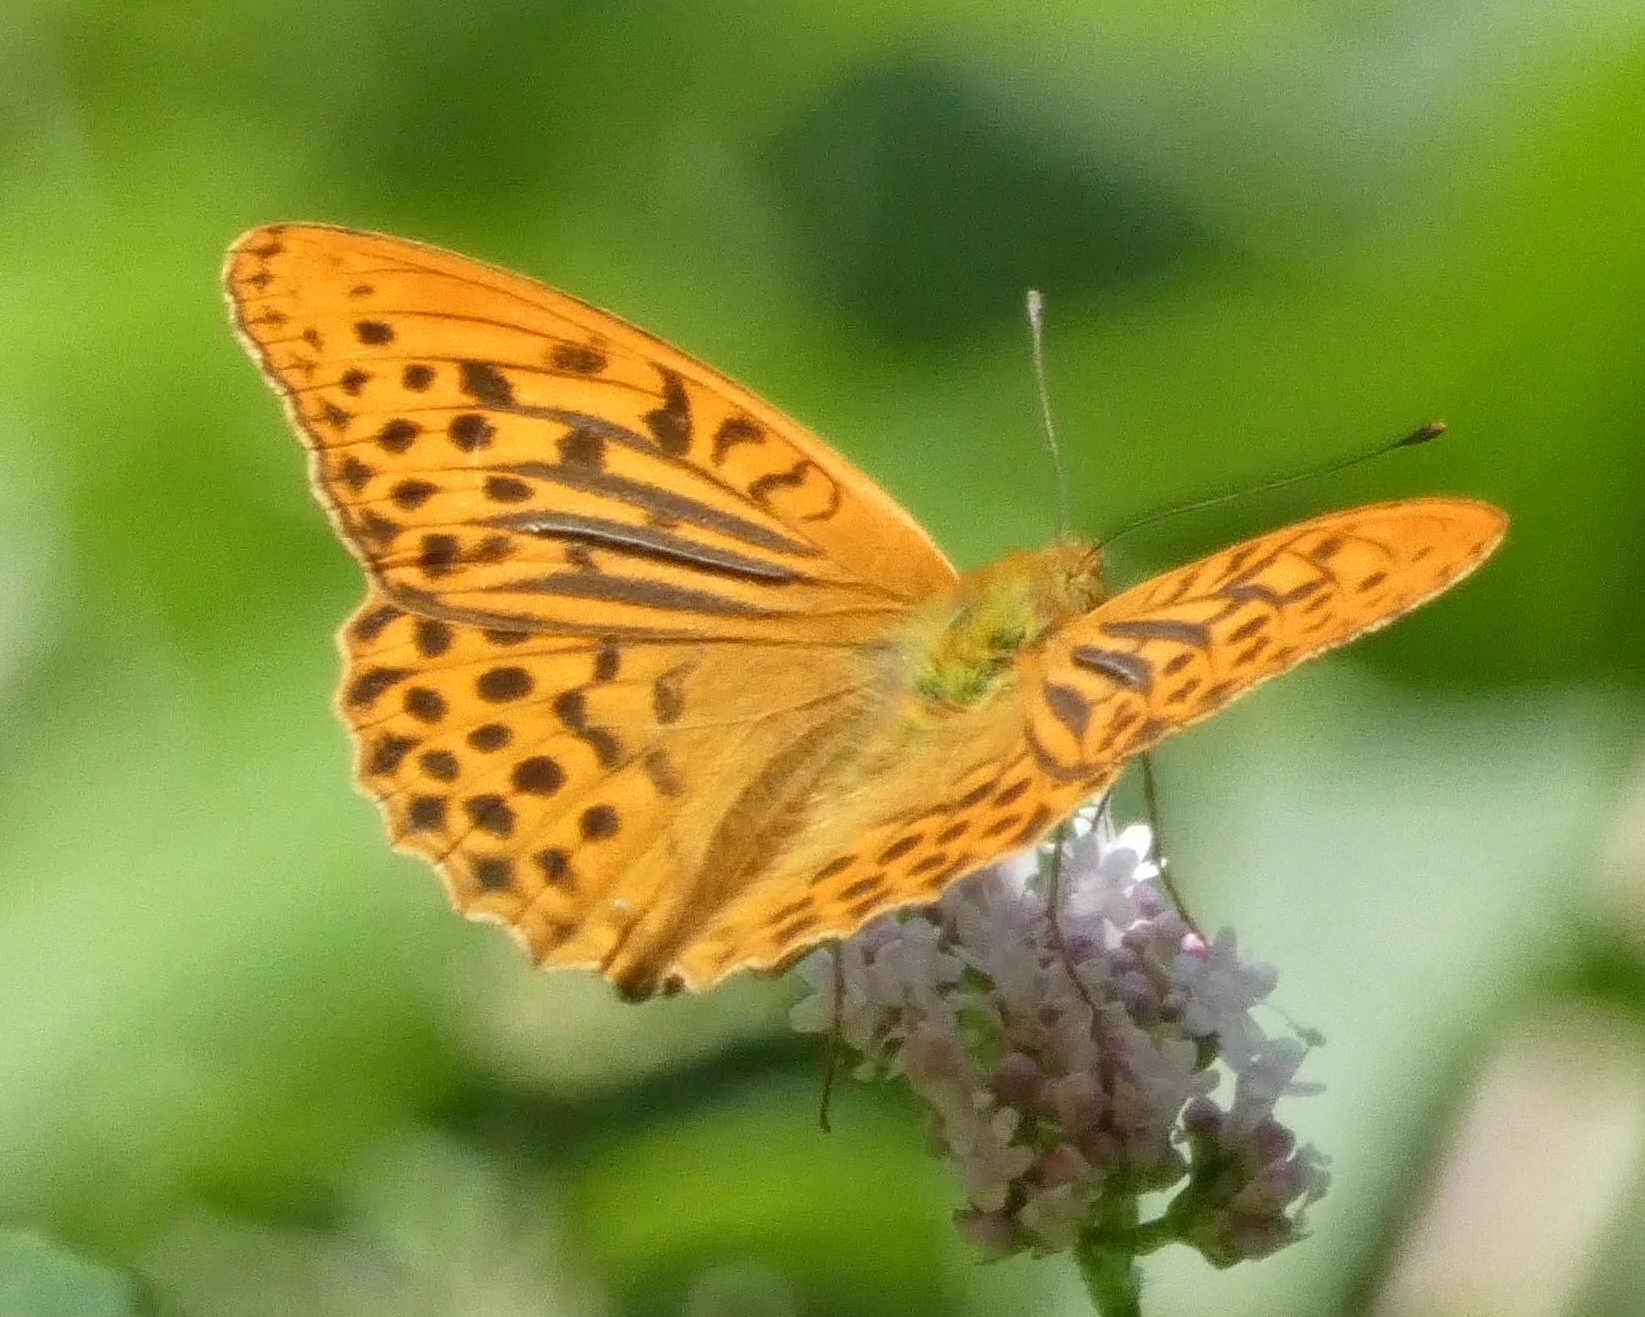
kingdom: Animalia
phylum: Arthropoda
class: Insecta
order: Lepidoptera
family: Nymphalidae
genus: Argynnis
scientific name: Argynnis paphia
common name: Silver-washed fritillary
